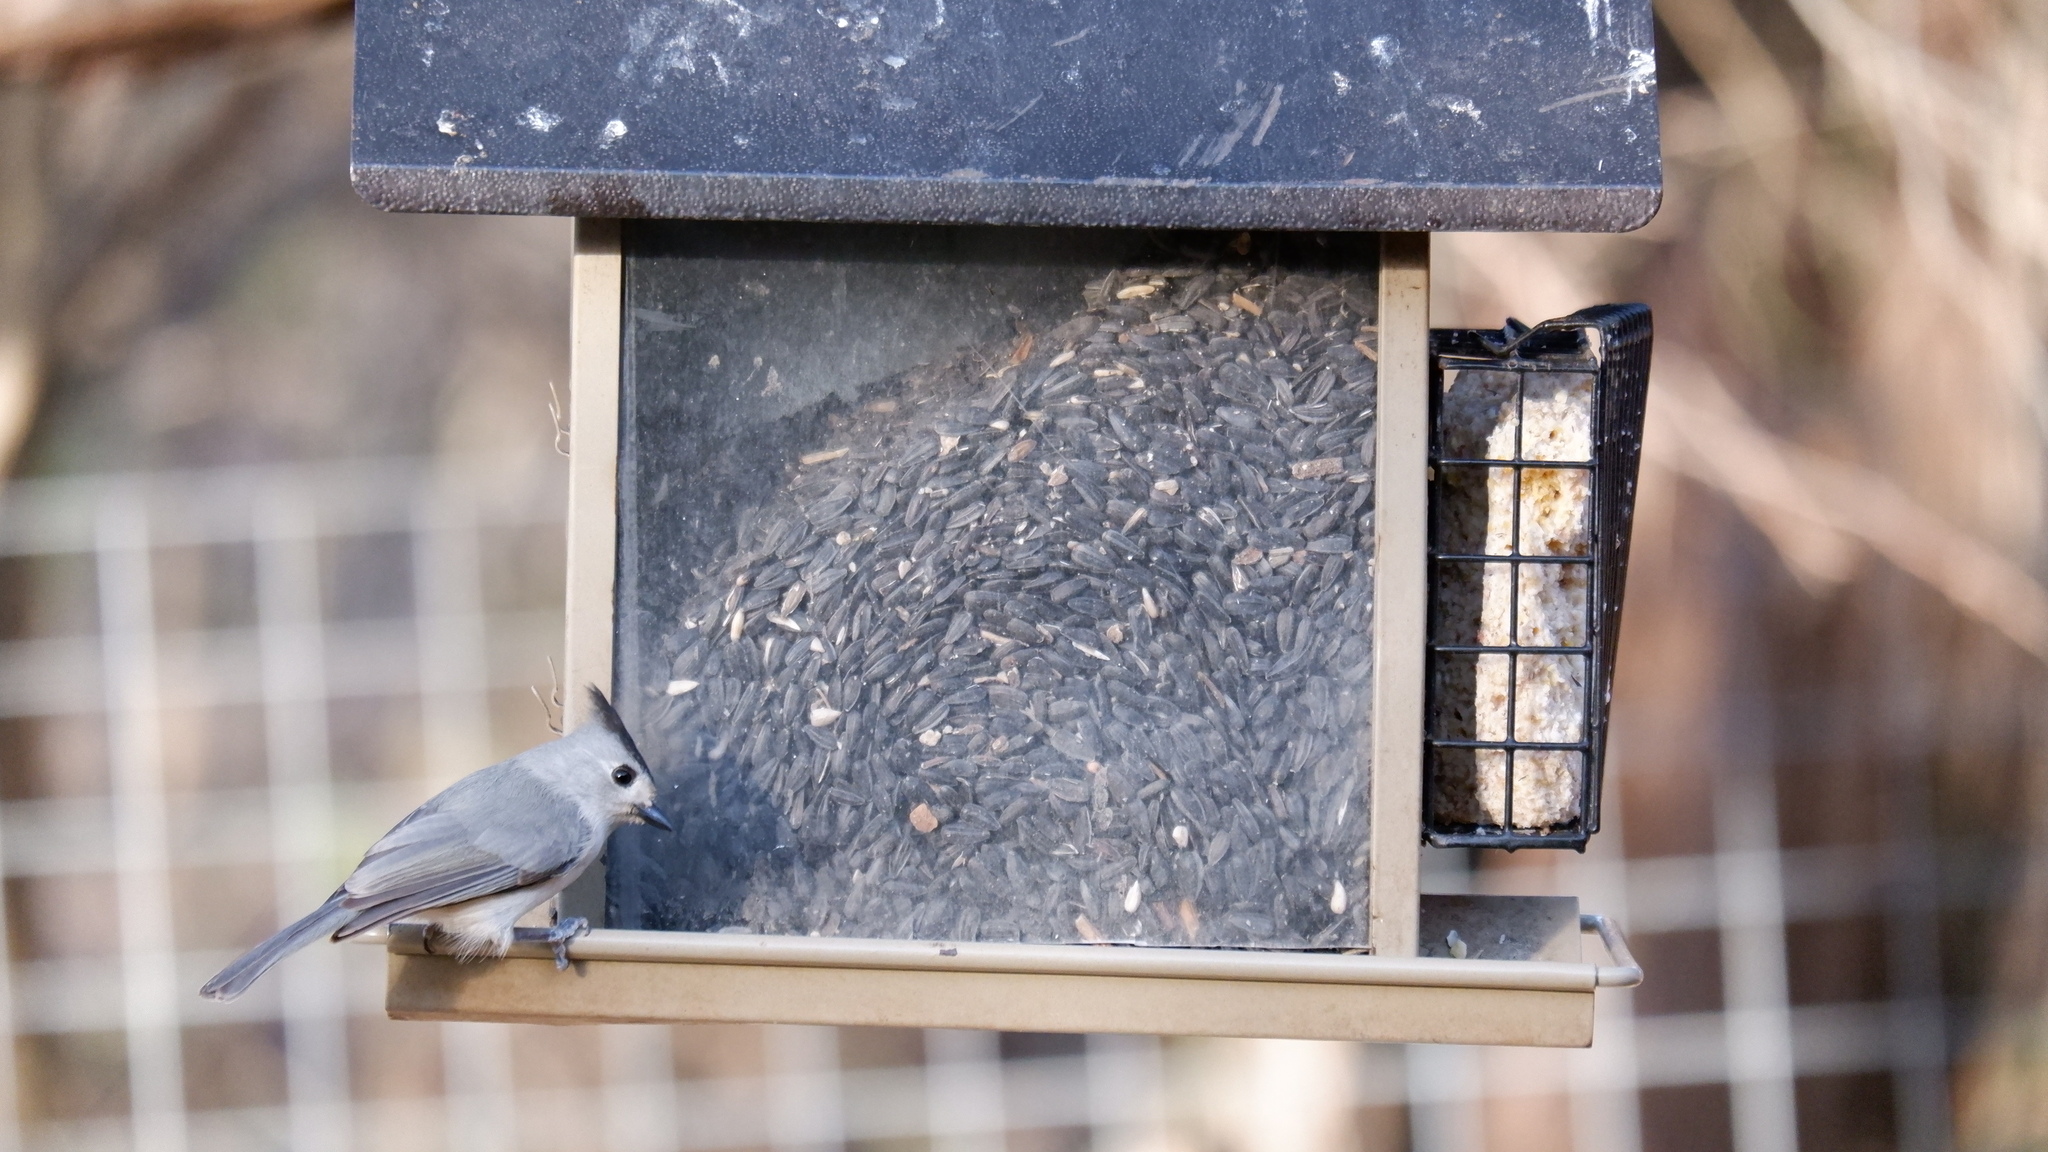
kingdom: Animalia
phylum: Chordata
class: Aves
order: Passeriformes
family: Paridae
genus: Baeolophus
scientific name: Baeolophus atricristatus
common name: Black-crested titmouse
